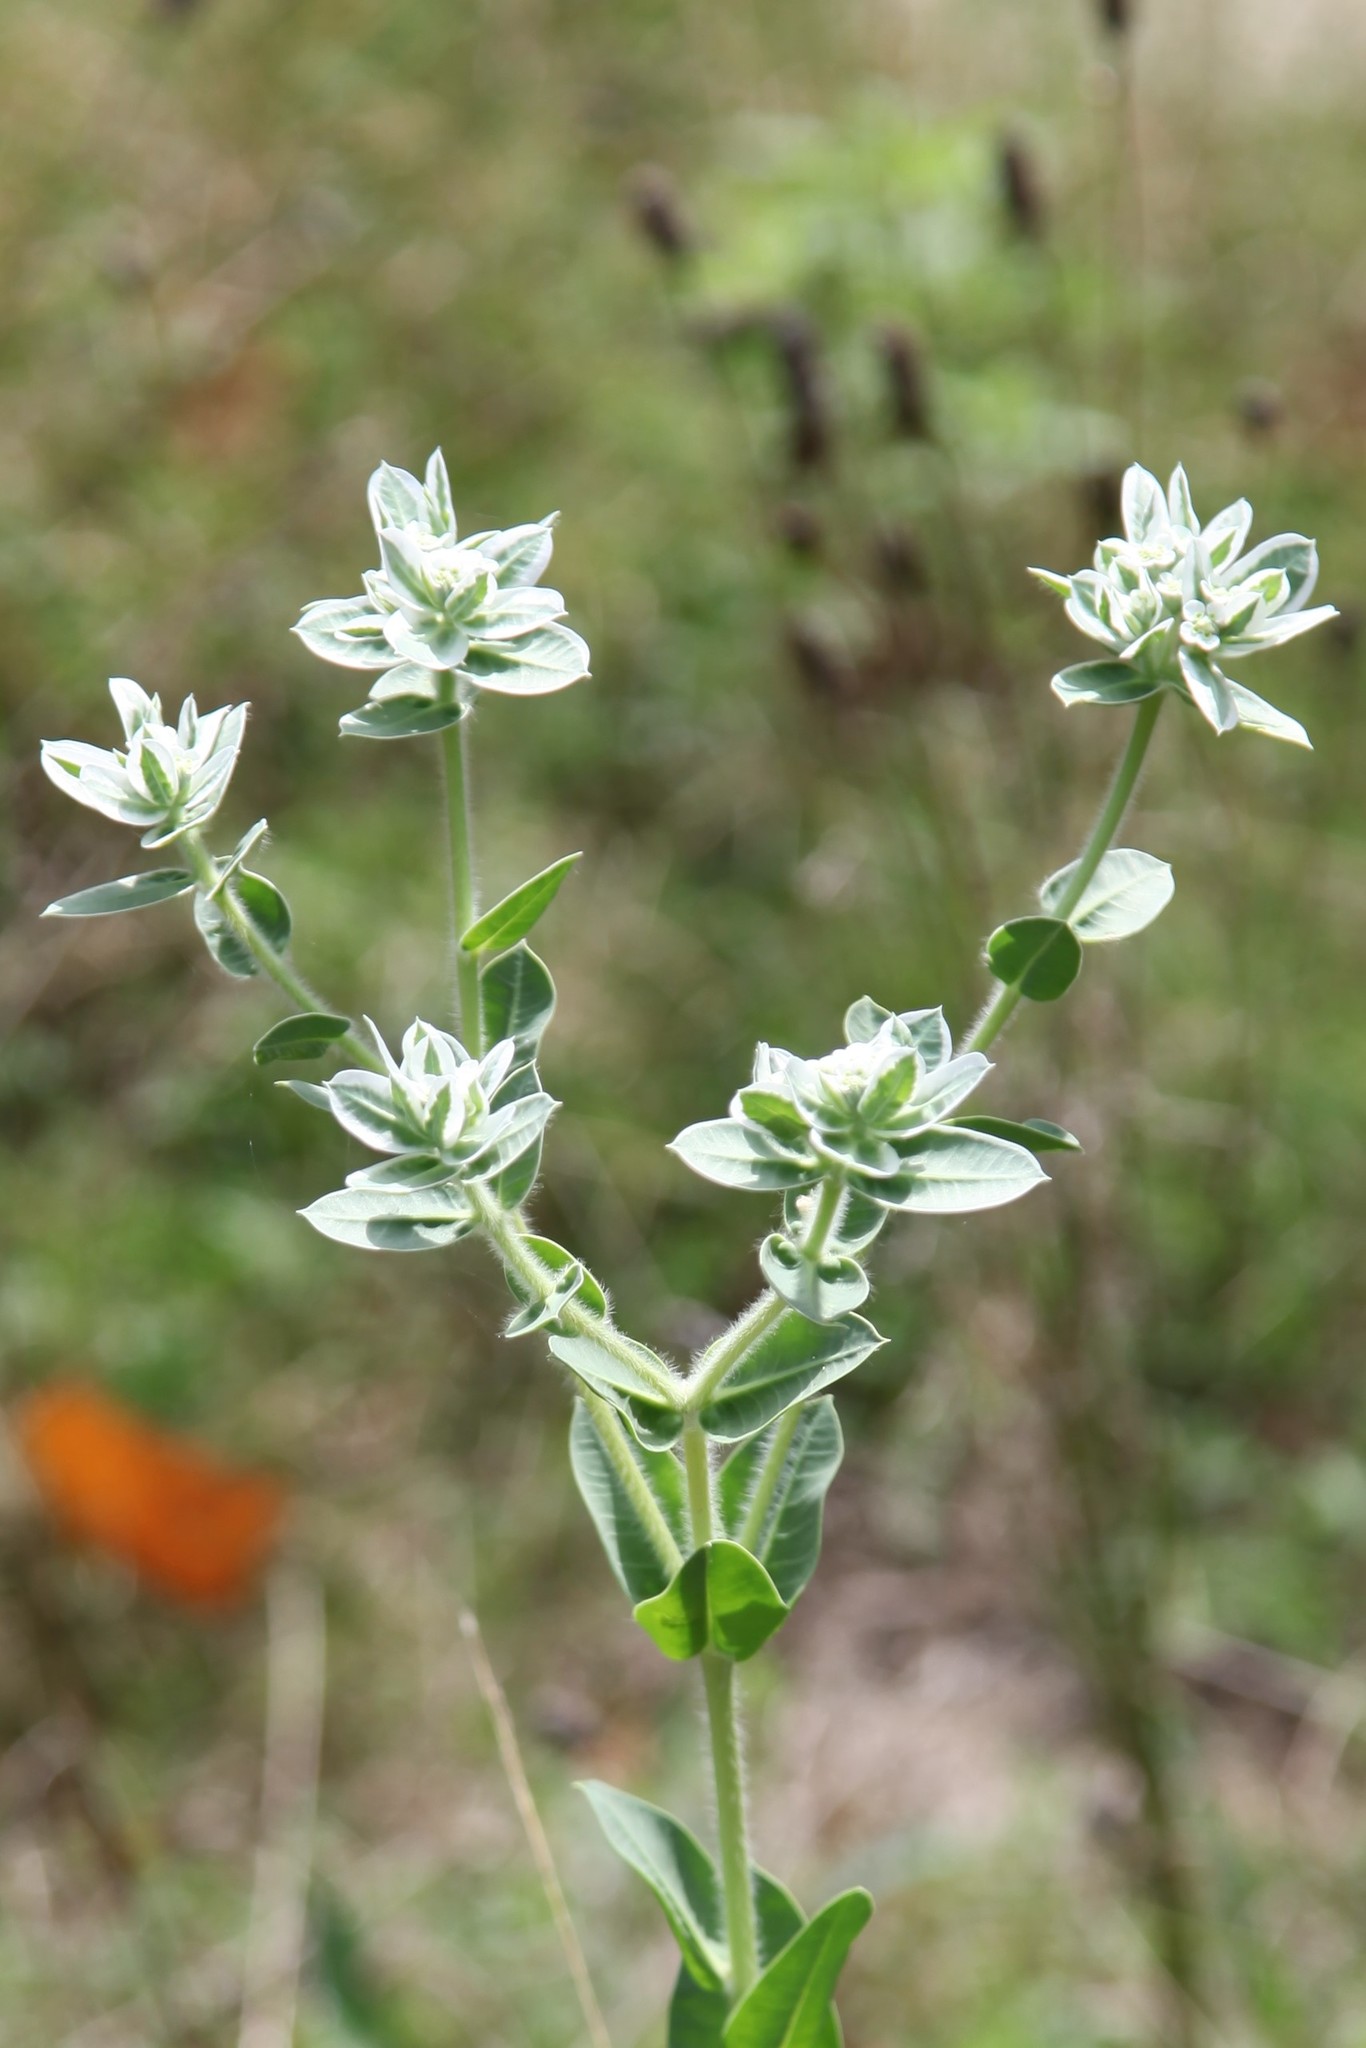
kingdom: Plantae
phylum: Tracheophyta
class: Magnoliopsida
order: Malpighiales
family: Euphorbiaceae
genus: Euphorbia
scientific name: Euphorbia marginata
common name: Ghostweed
